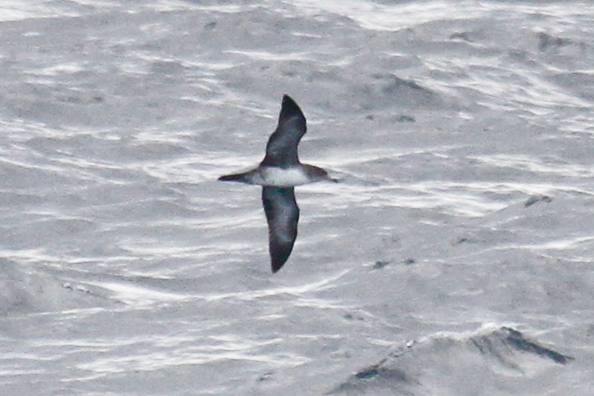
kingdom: Animalia
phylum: Chordata
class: Aves
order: Procellariiformes
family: Procellariidae
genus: Puffinus
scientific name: Puffinus creatopus
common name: Pink-footed shearwater
